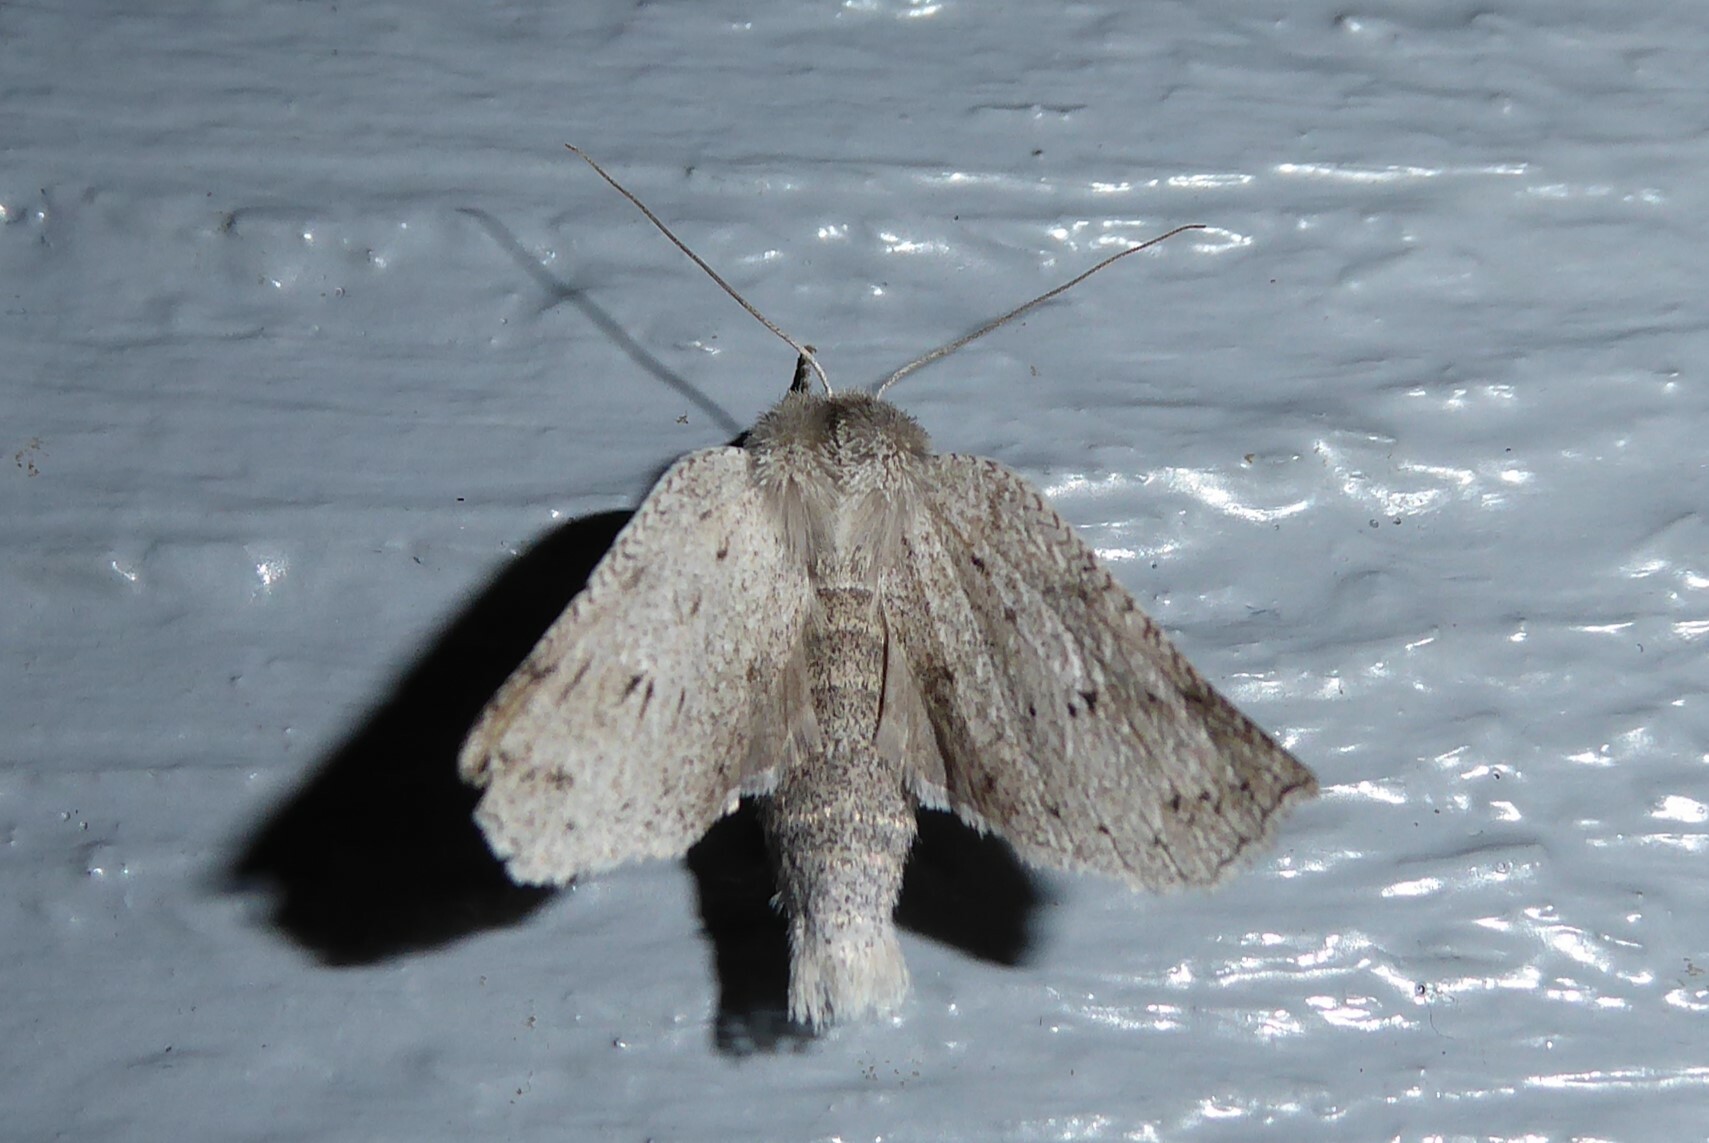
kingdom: Animalia
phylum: Arthropoda
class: Insecta
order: Lepidoptera
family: Geometridae
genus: Declana
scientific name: Declana leptomera
